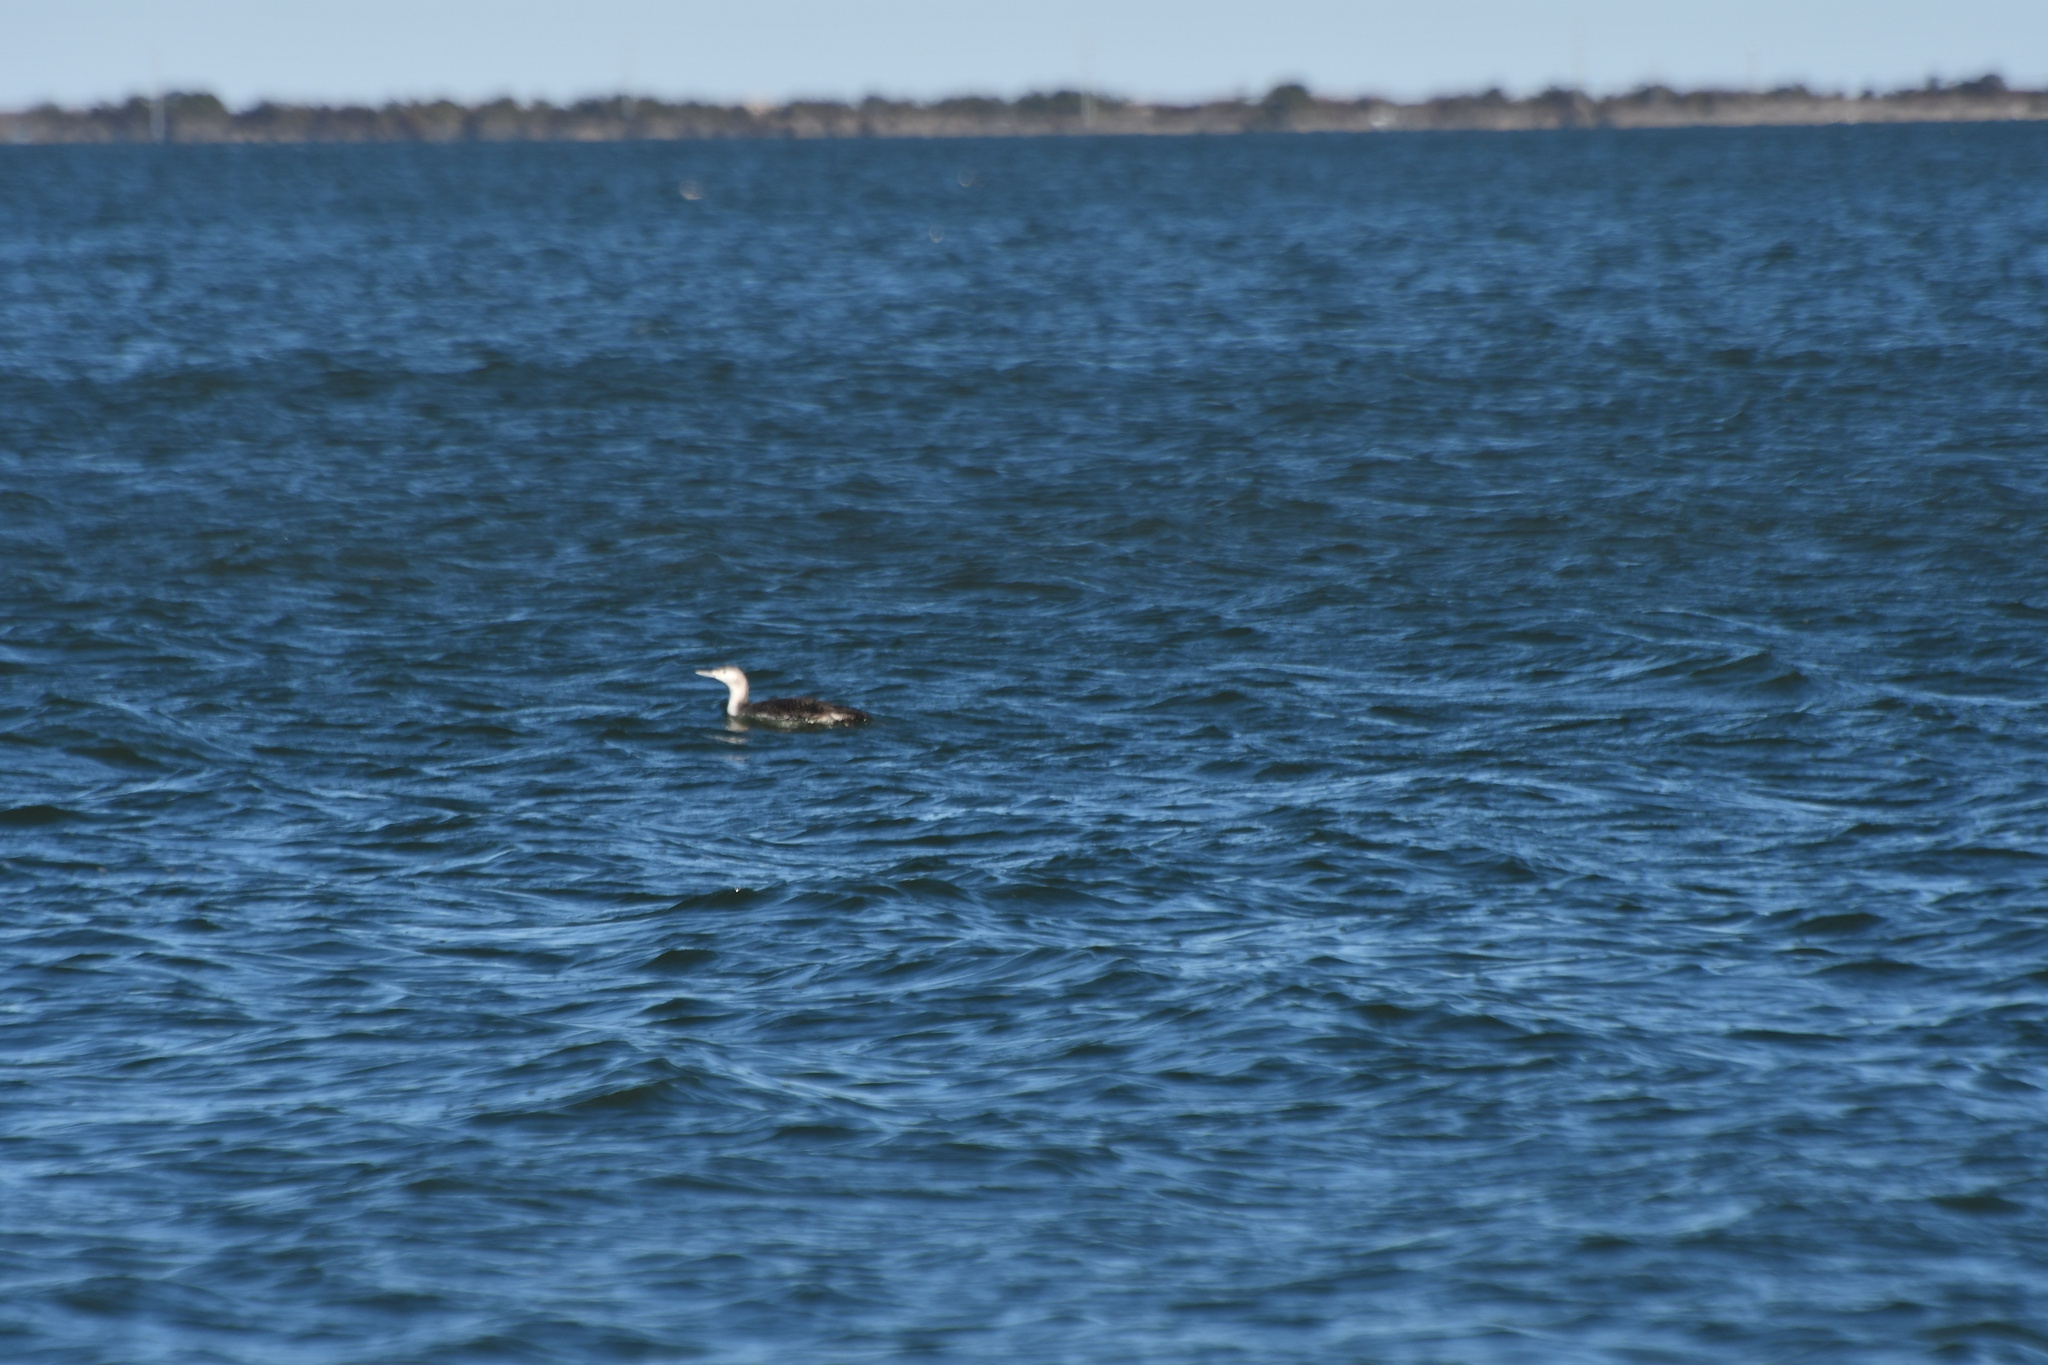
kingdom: Animalia
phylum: Chordata
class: Aves
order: Gaviiformes
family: Gaviidae
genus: Gavia
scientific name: Gavia stellata
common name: Red-throated loon
